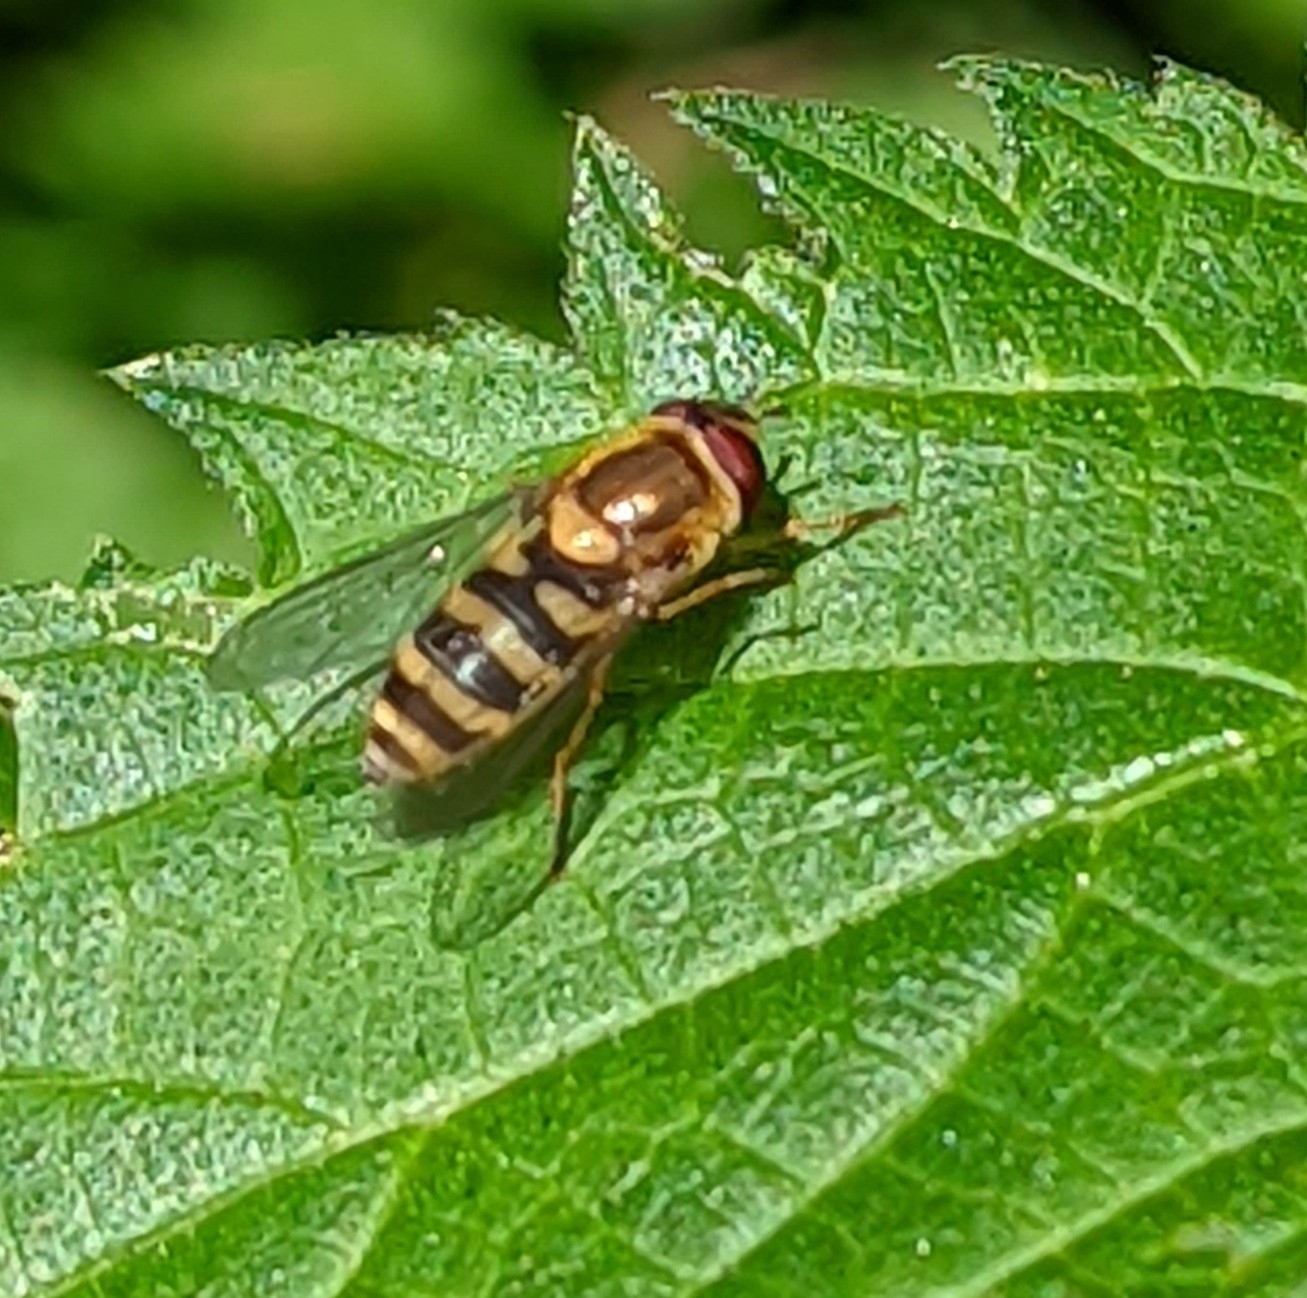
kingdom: Animalia
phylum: Arthropoda
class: Insecta
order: Diptera
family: Syrphidae
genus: Syrphus
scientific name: Syrphus
